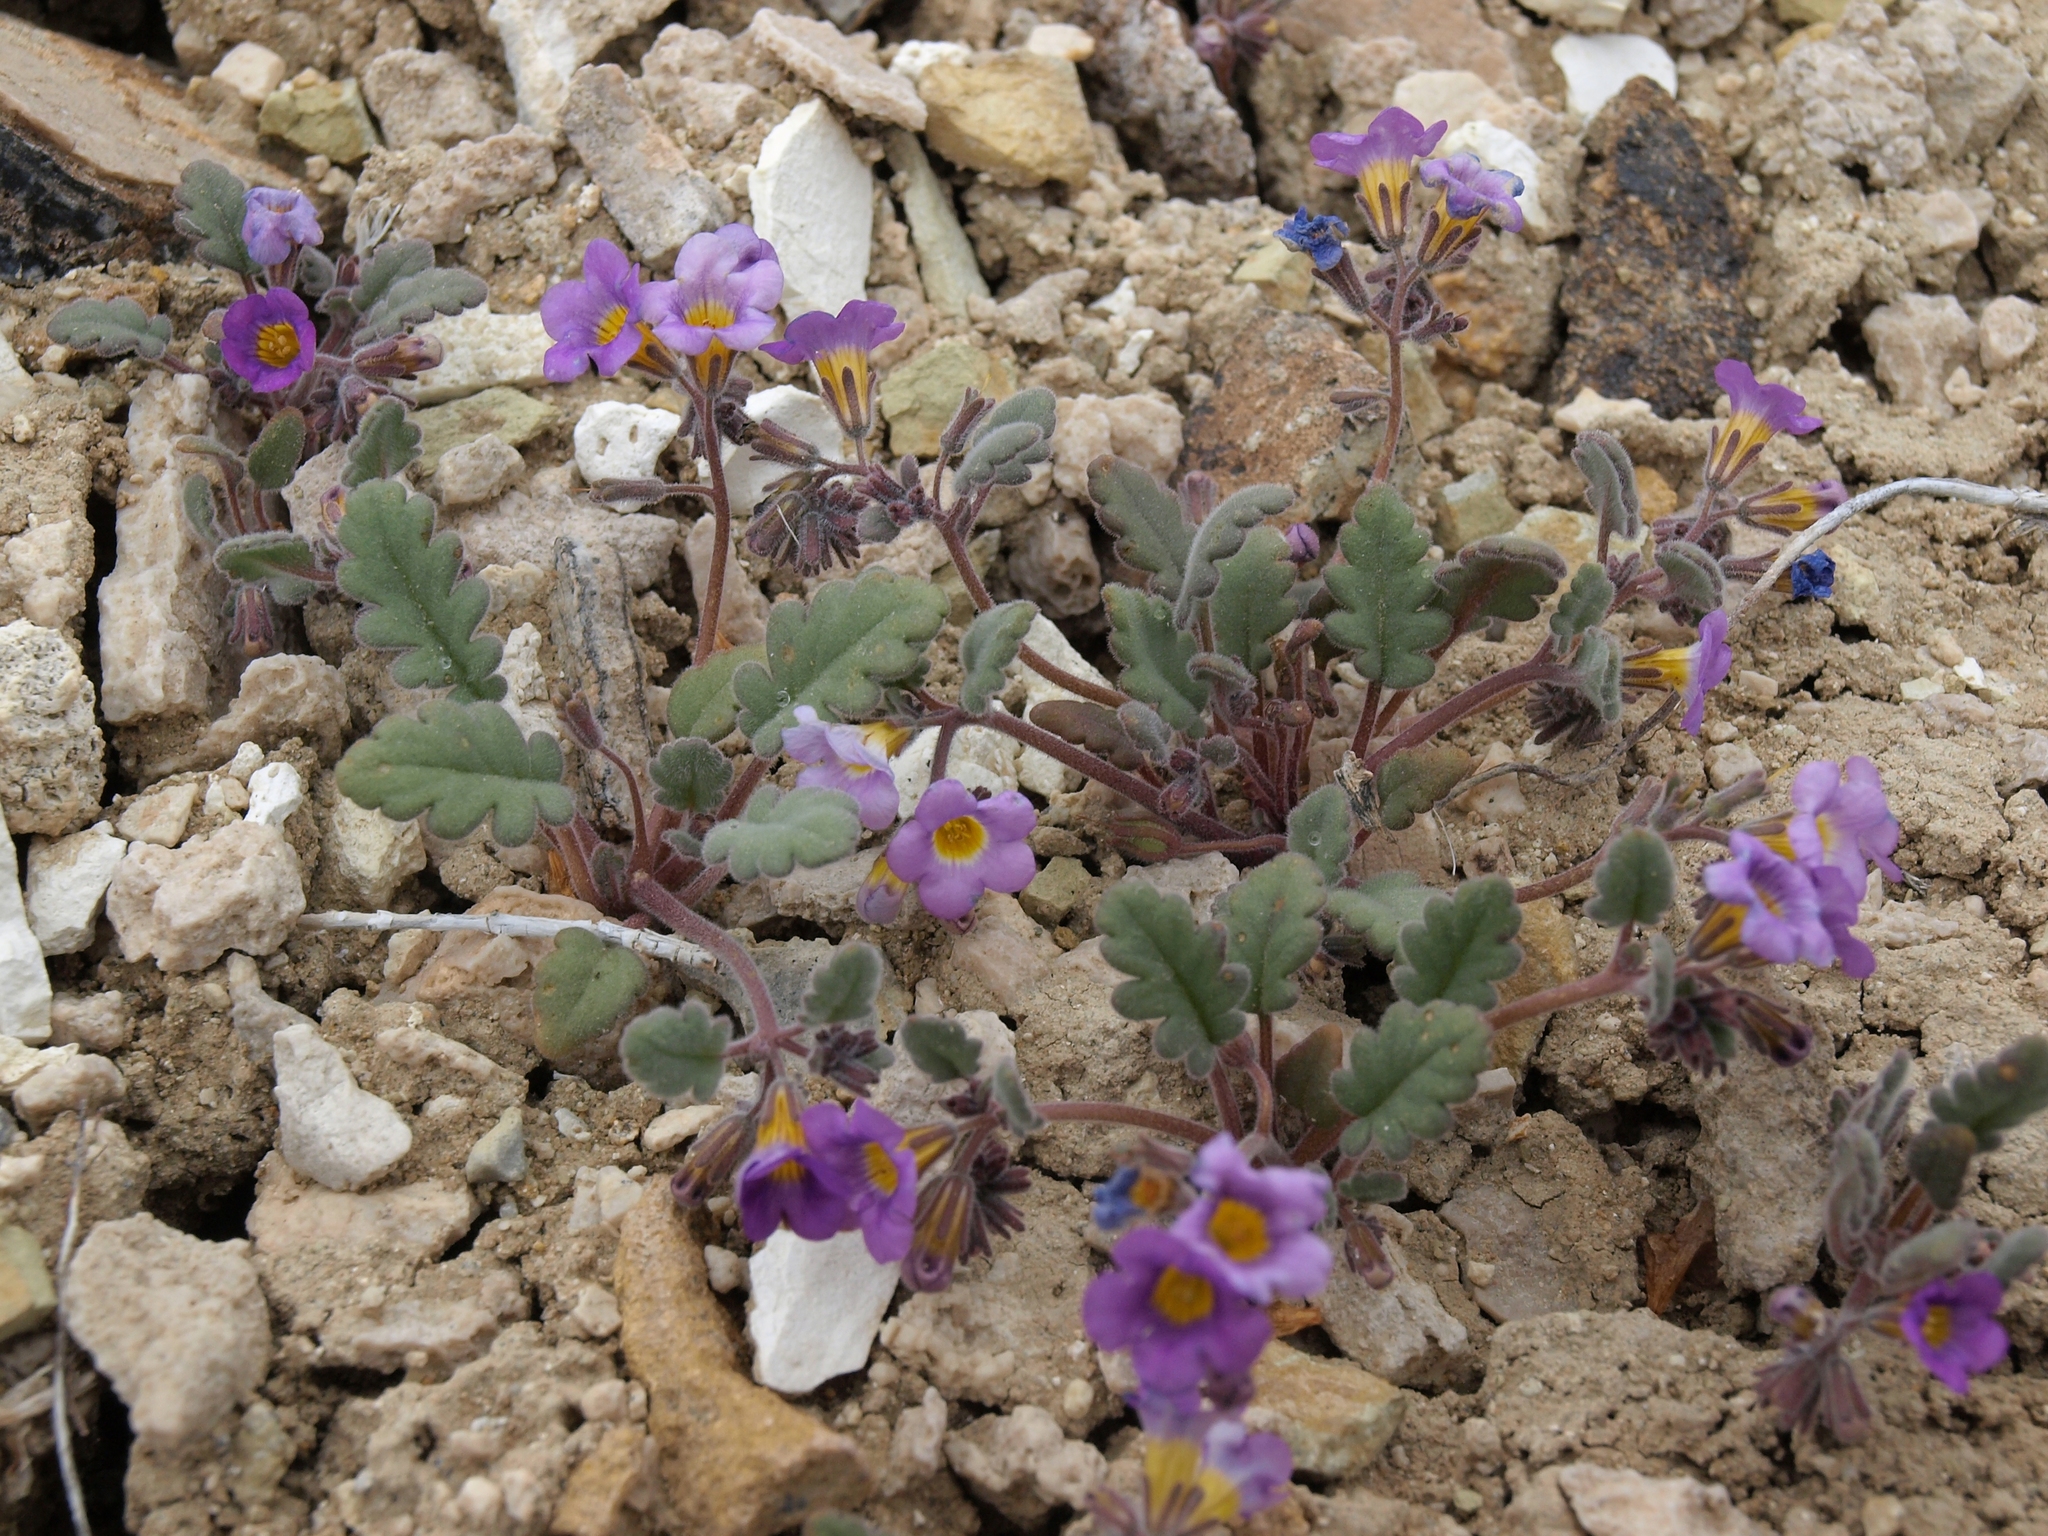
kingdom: Plantae
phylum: Tracheophyta
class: Magnoliopsida
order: Boraginales
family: Hydrophyllaceae
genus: Phacelia
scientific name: Phacelia gymnoclada
